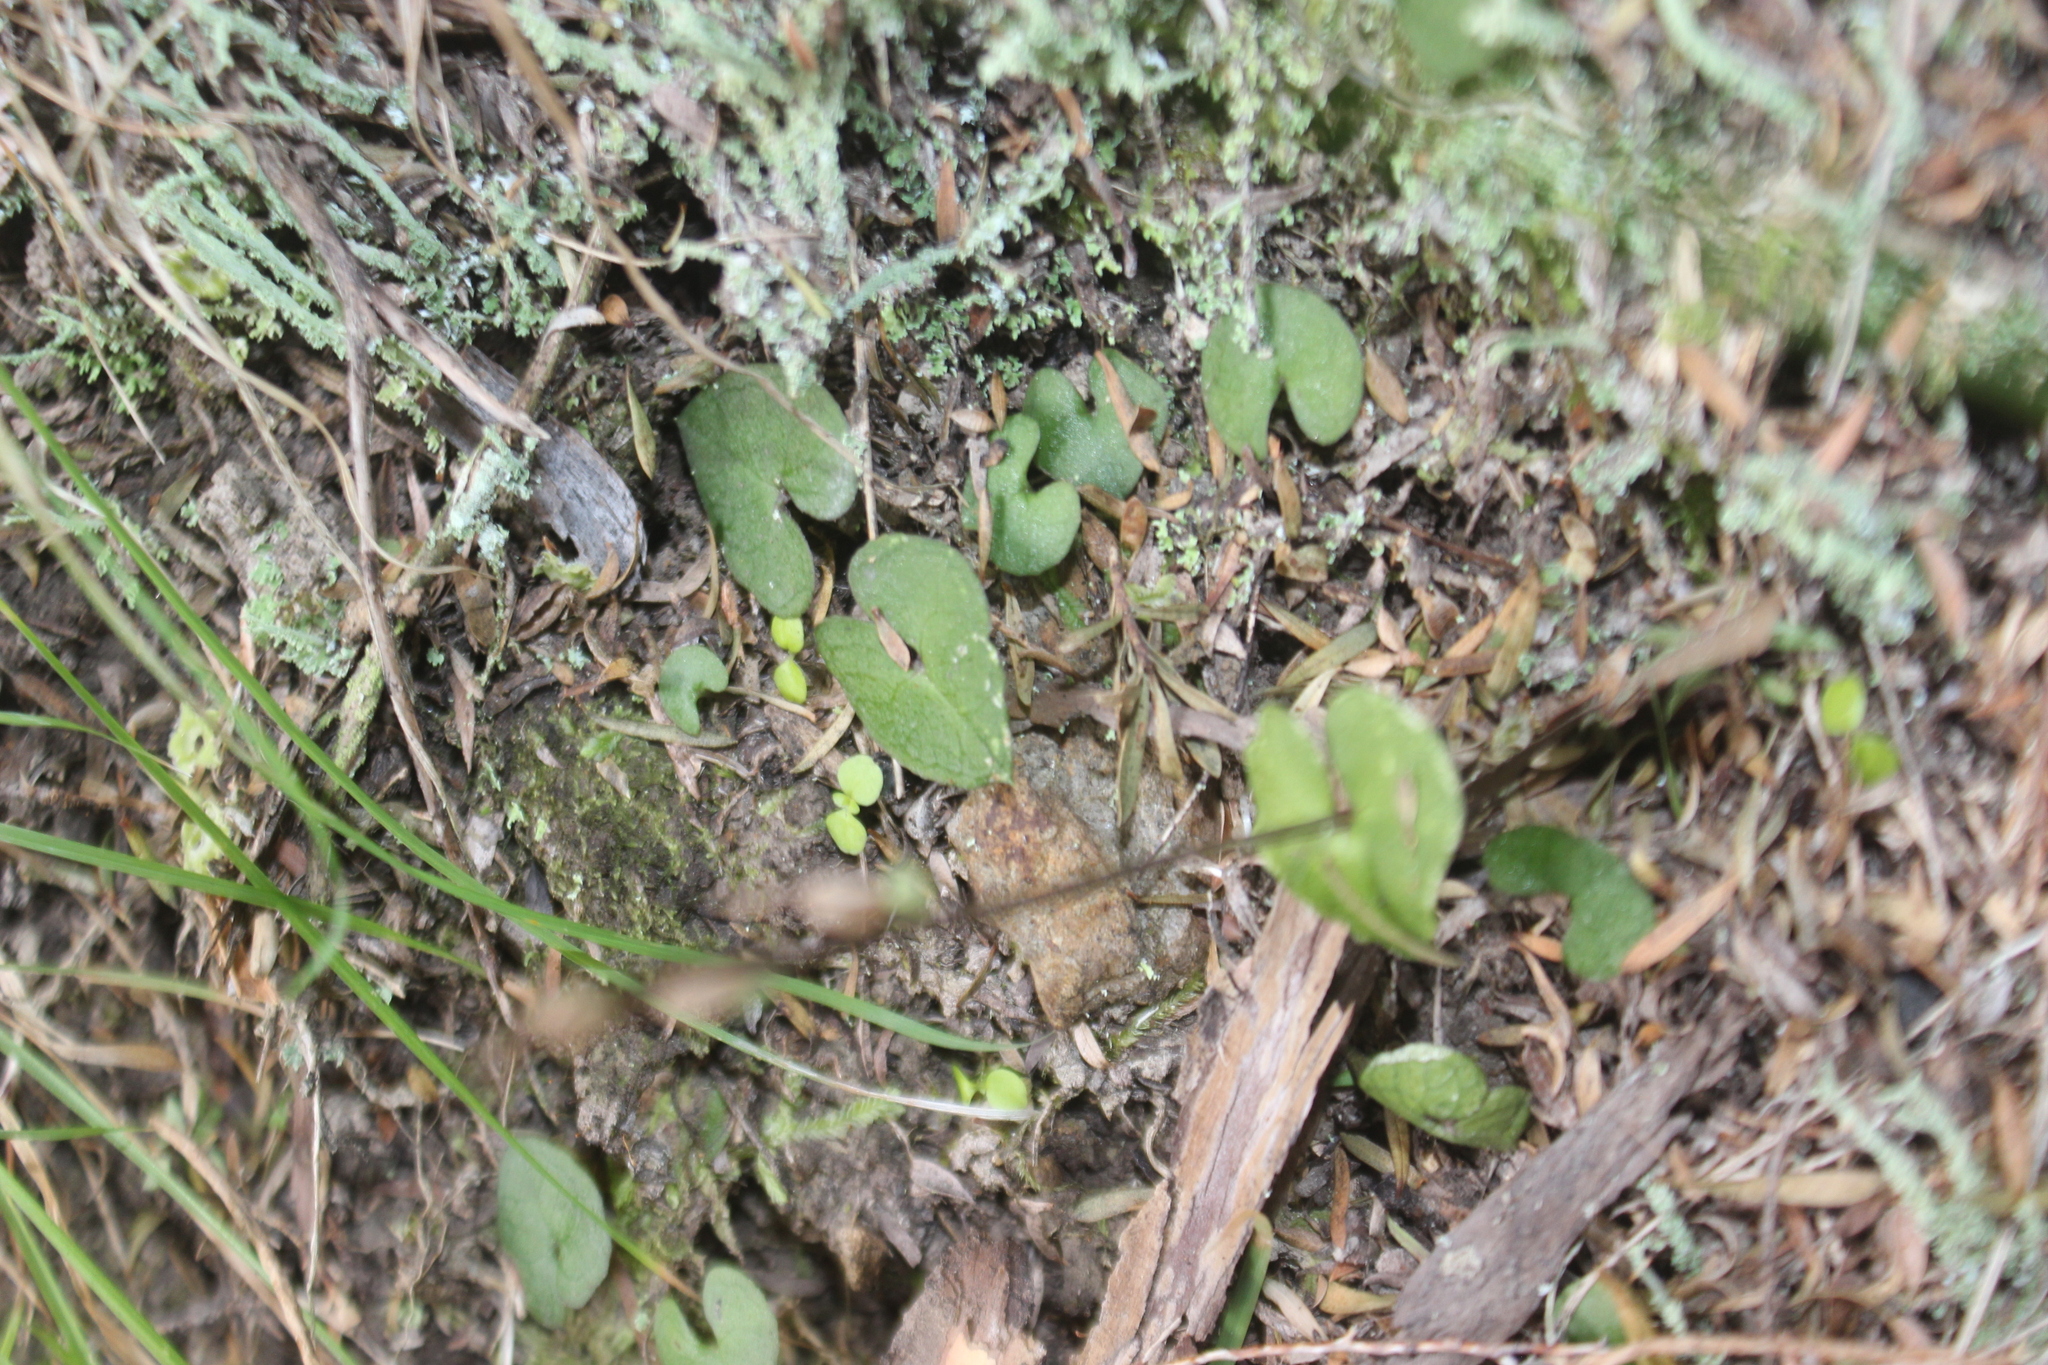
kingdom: Plantae
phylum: Tracheophyta
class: Liliopsida
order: Asparagales
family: Orchidaceae
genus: Acianthus
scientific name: Acianthus sinclairii
